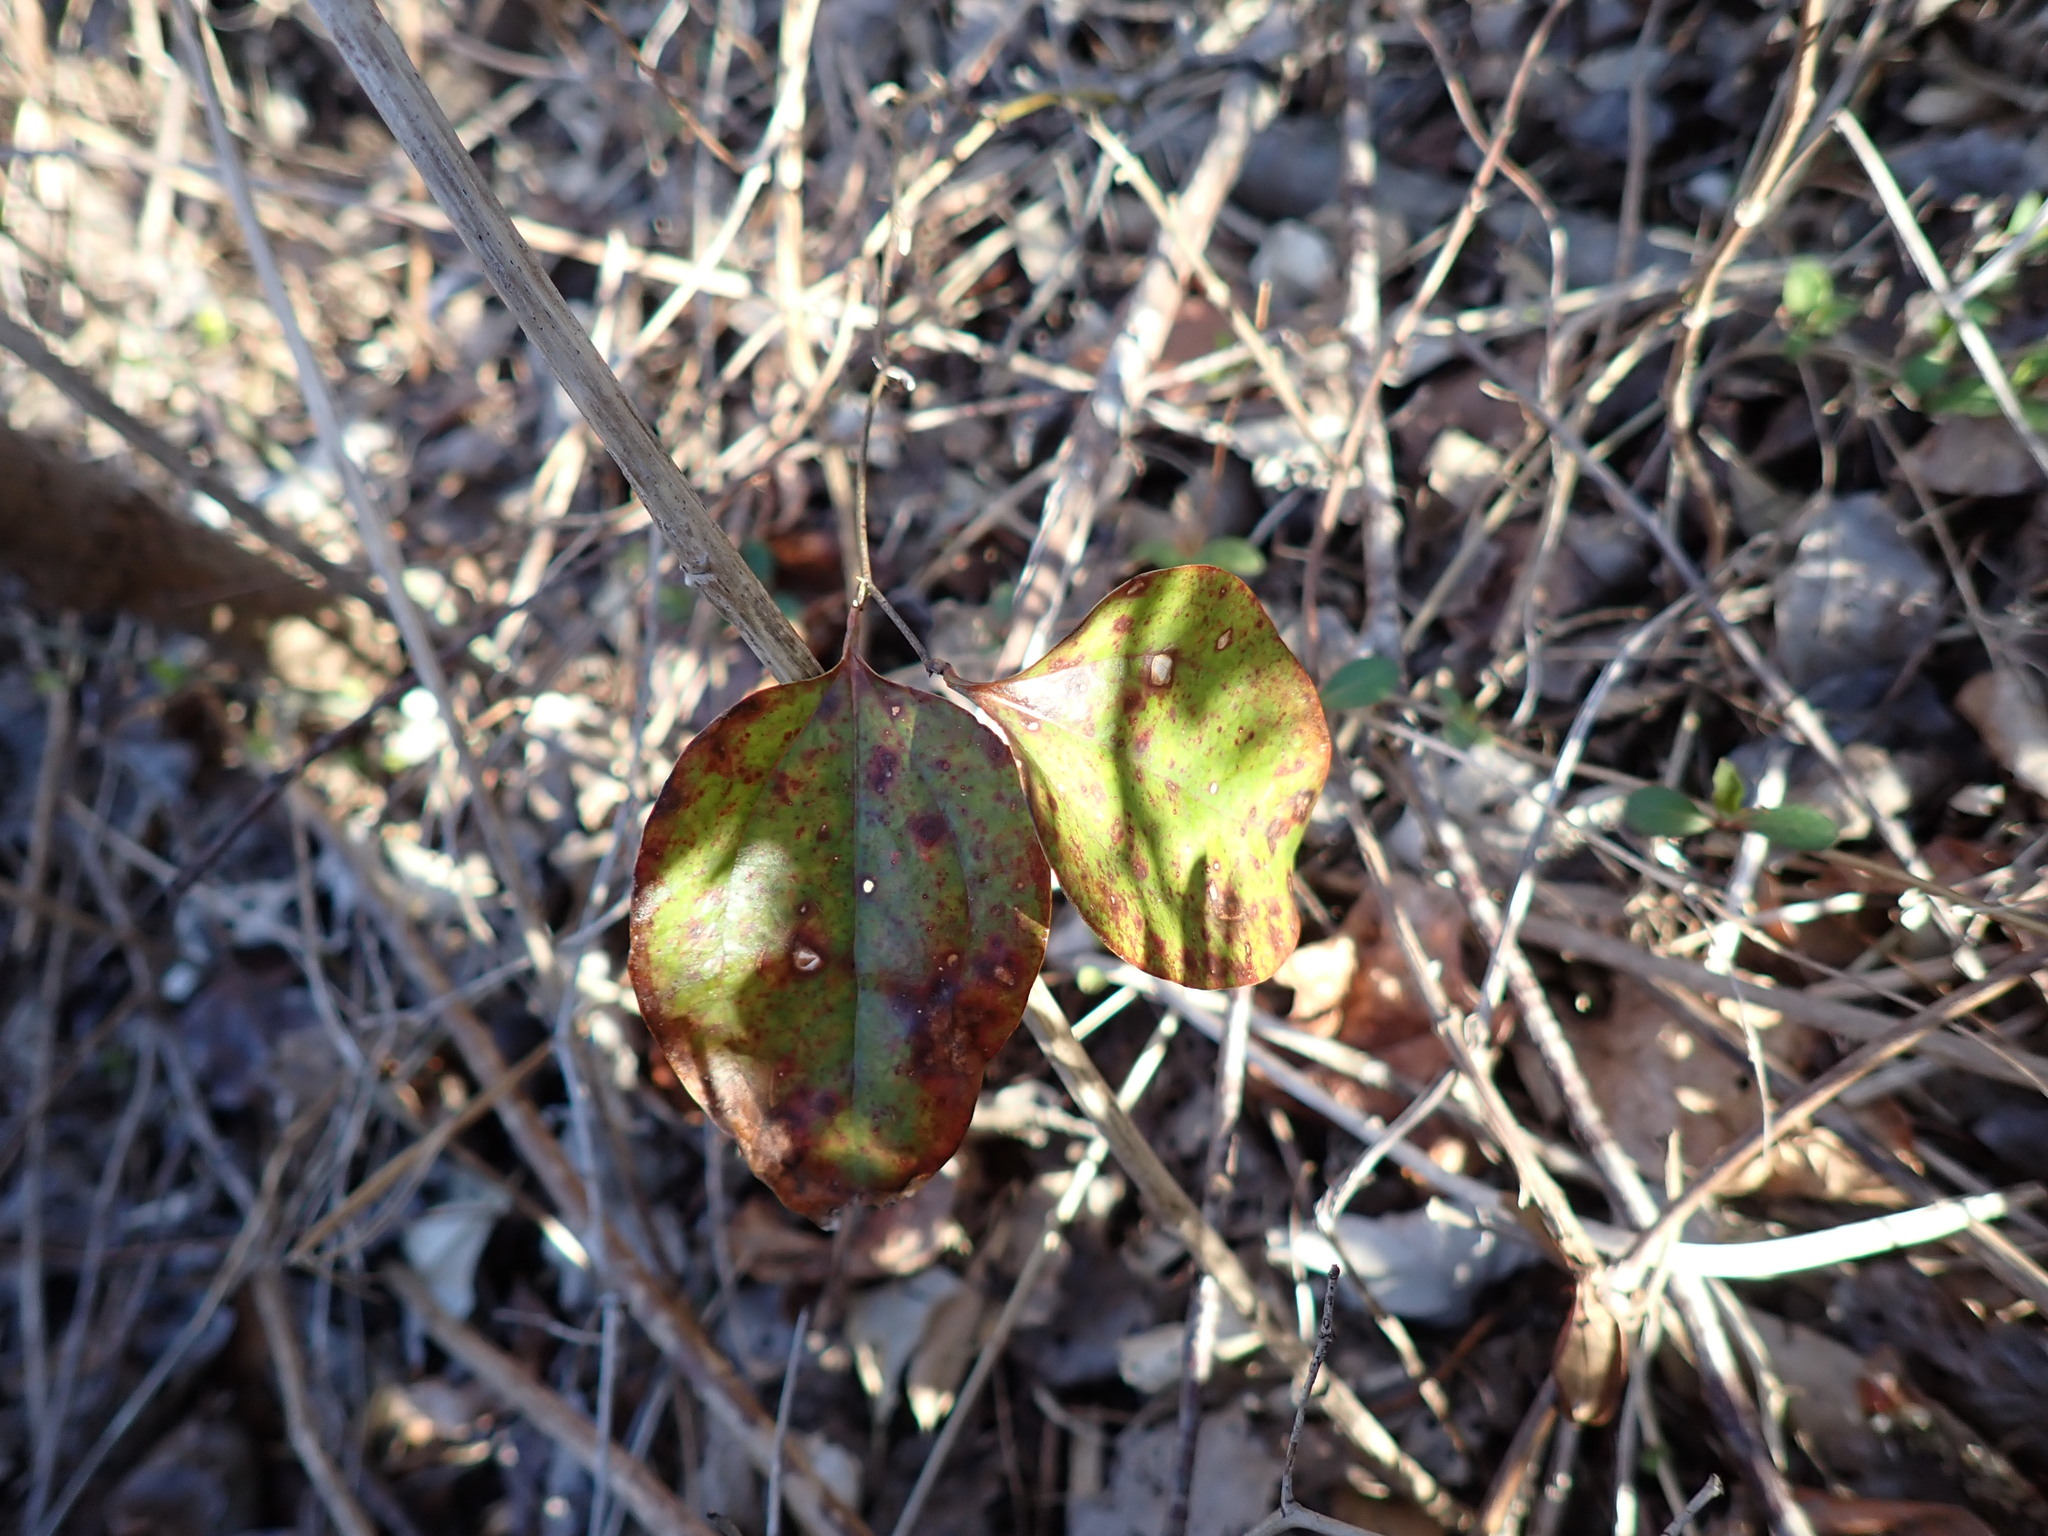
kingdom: Plantae
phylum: Tracheophyta
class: Liliopsida
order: Liliales
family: Smilacaceae
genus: Smilax
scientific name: Smilax glauca
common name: Cat greenbrier
